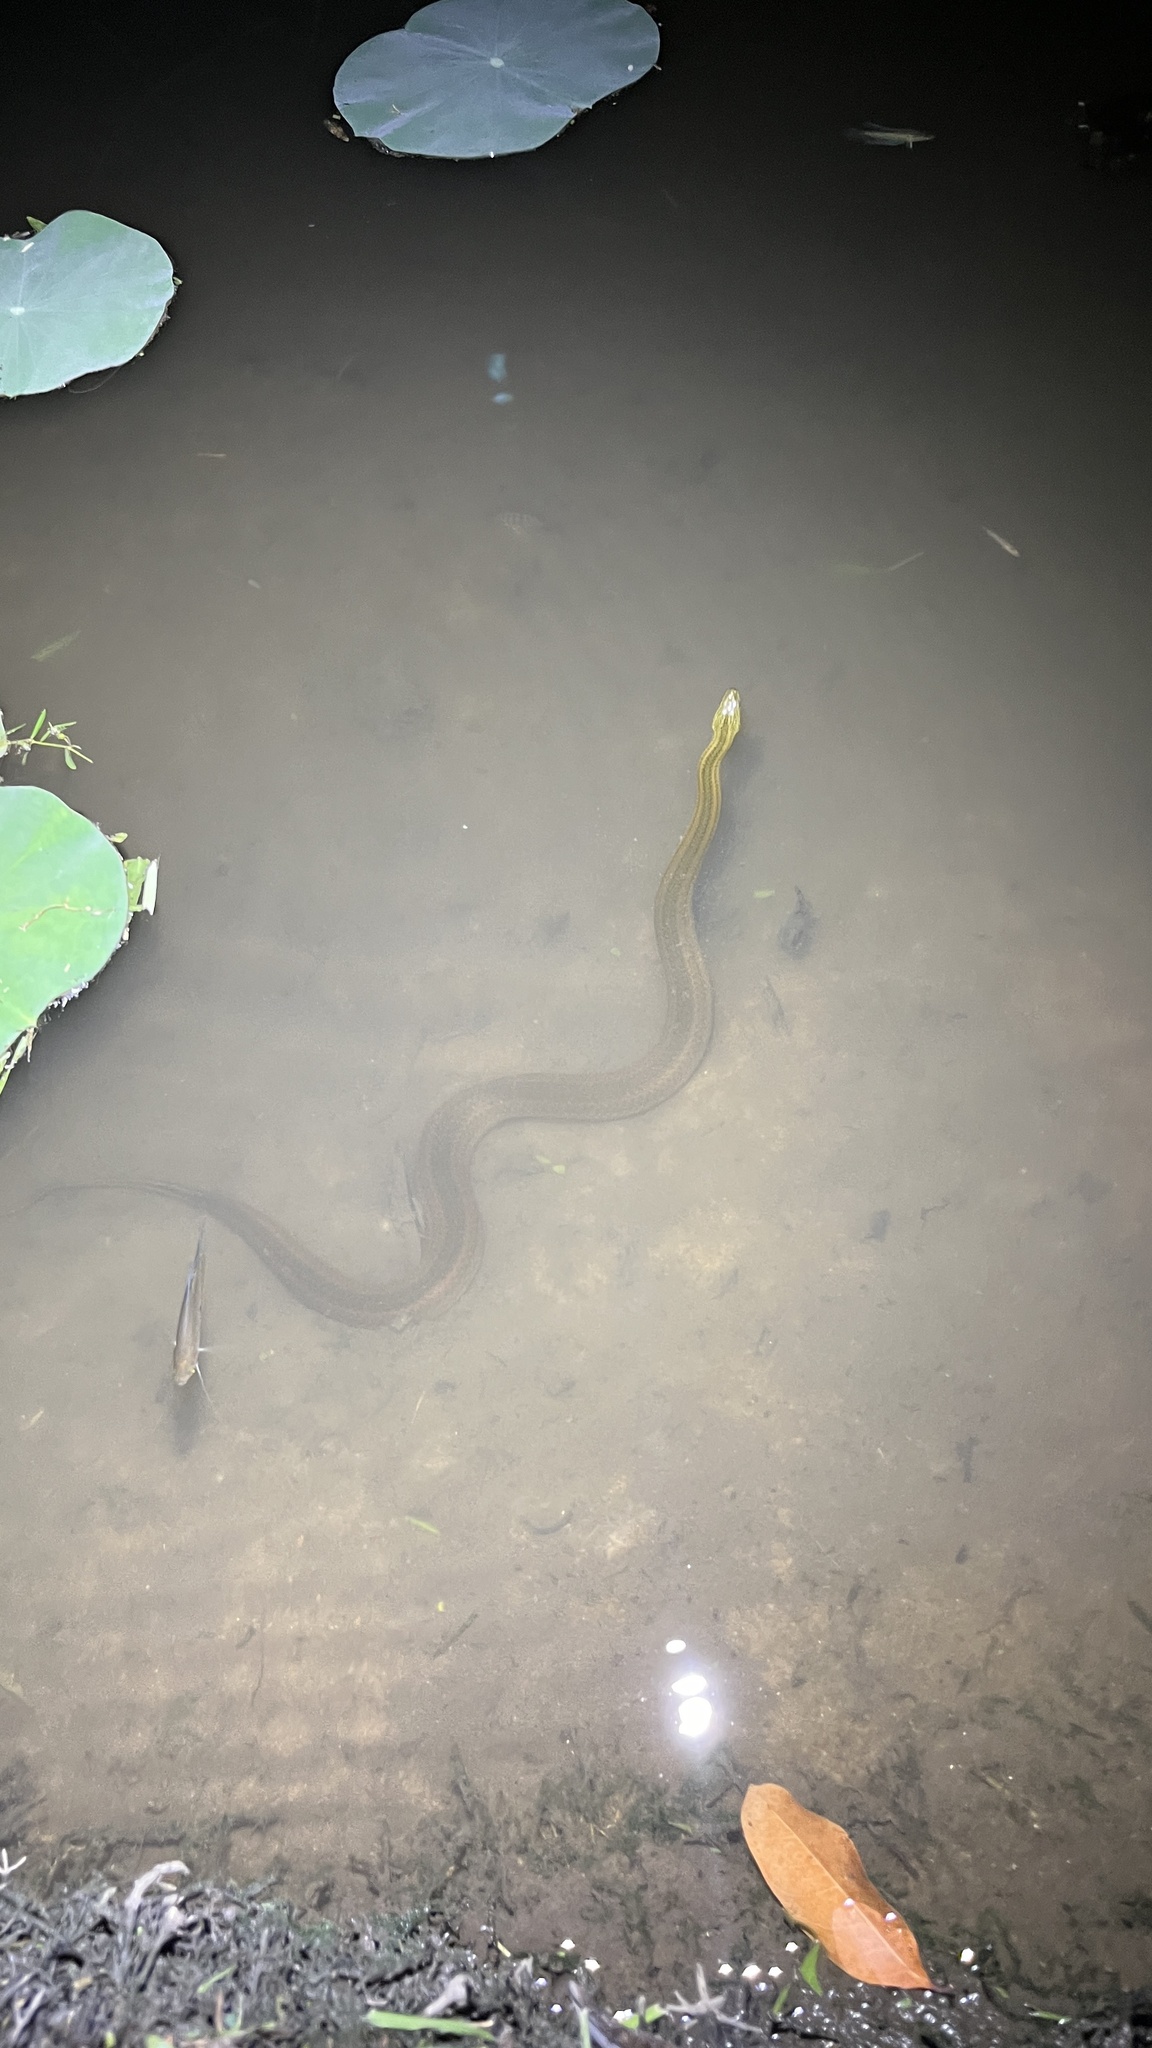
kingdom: Animalia
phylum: Chordata
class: Squamata
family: Homalopsidae
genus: Enhydris
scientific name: Enhydris enhydris
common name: Rainbow water snake
